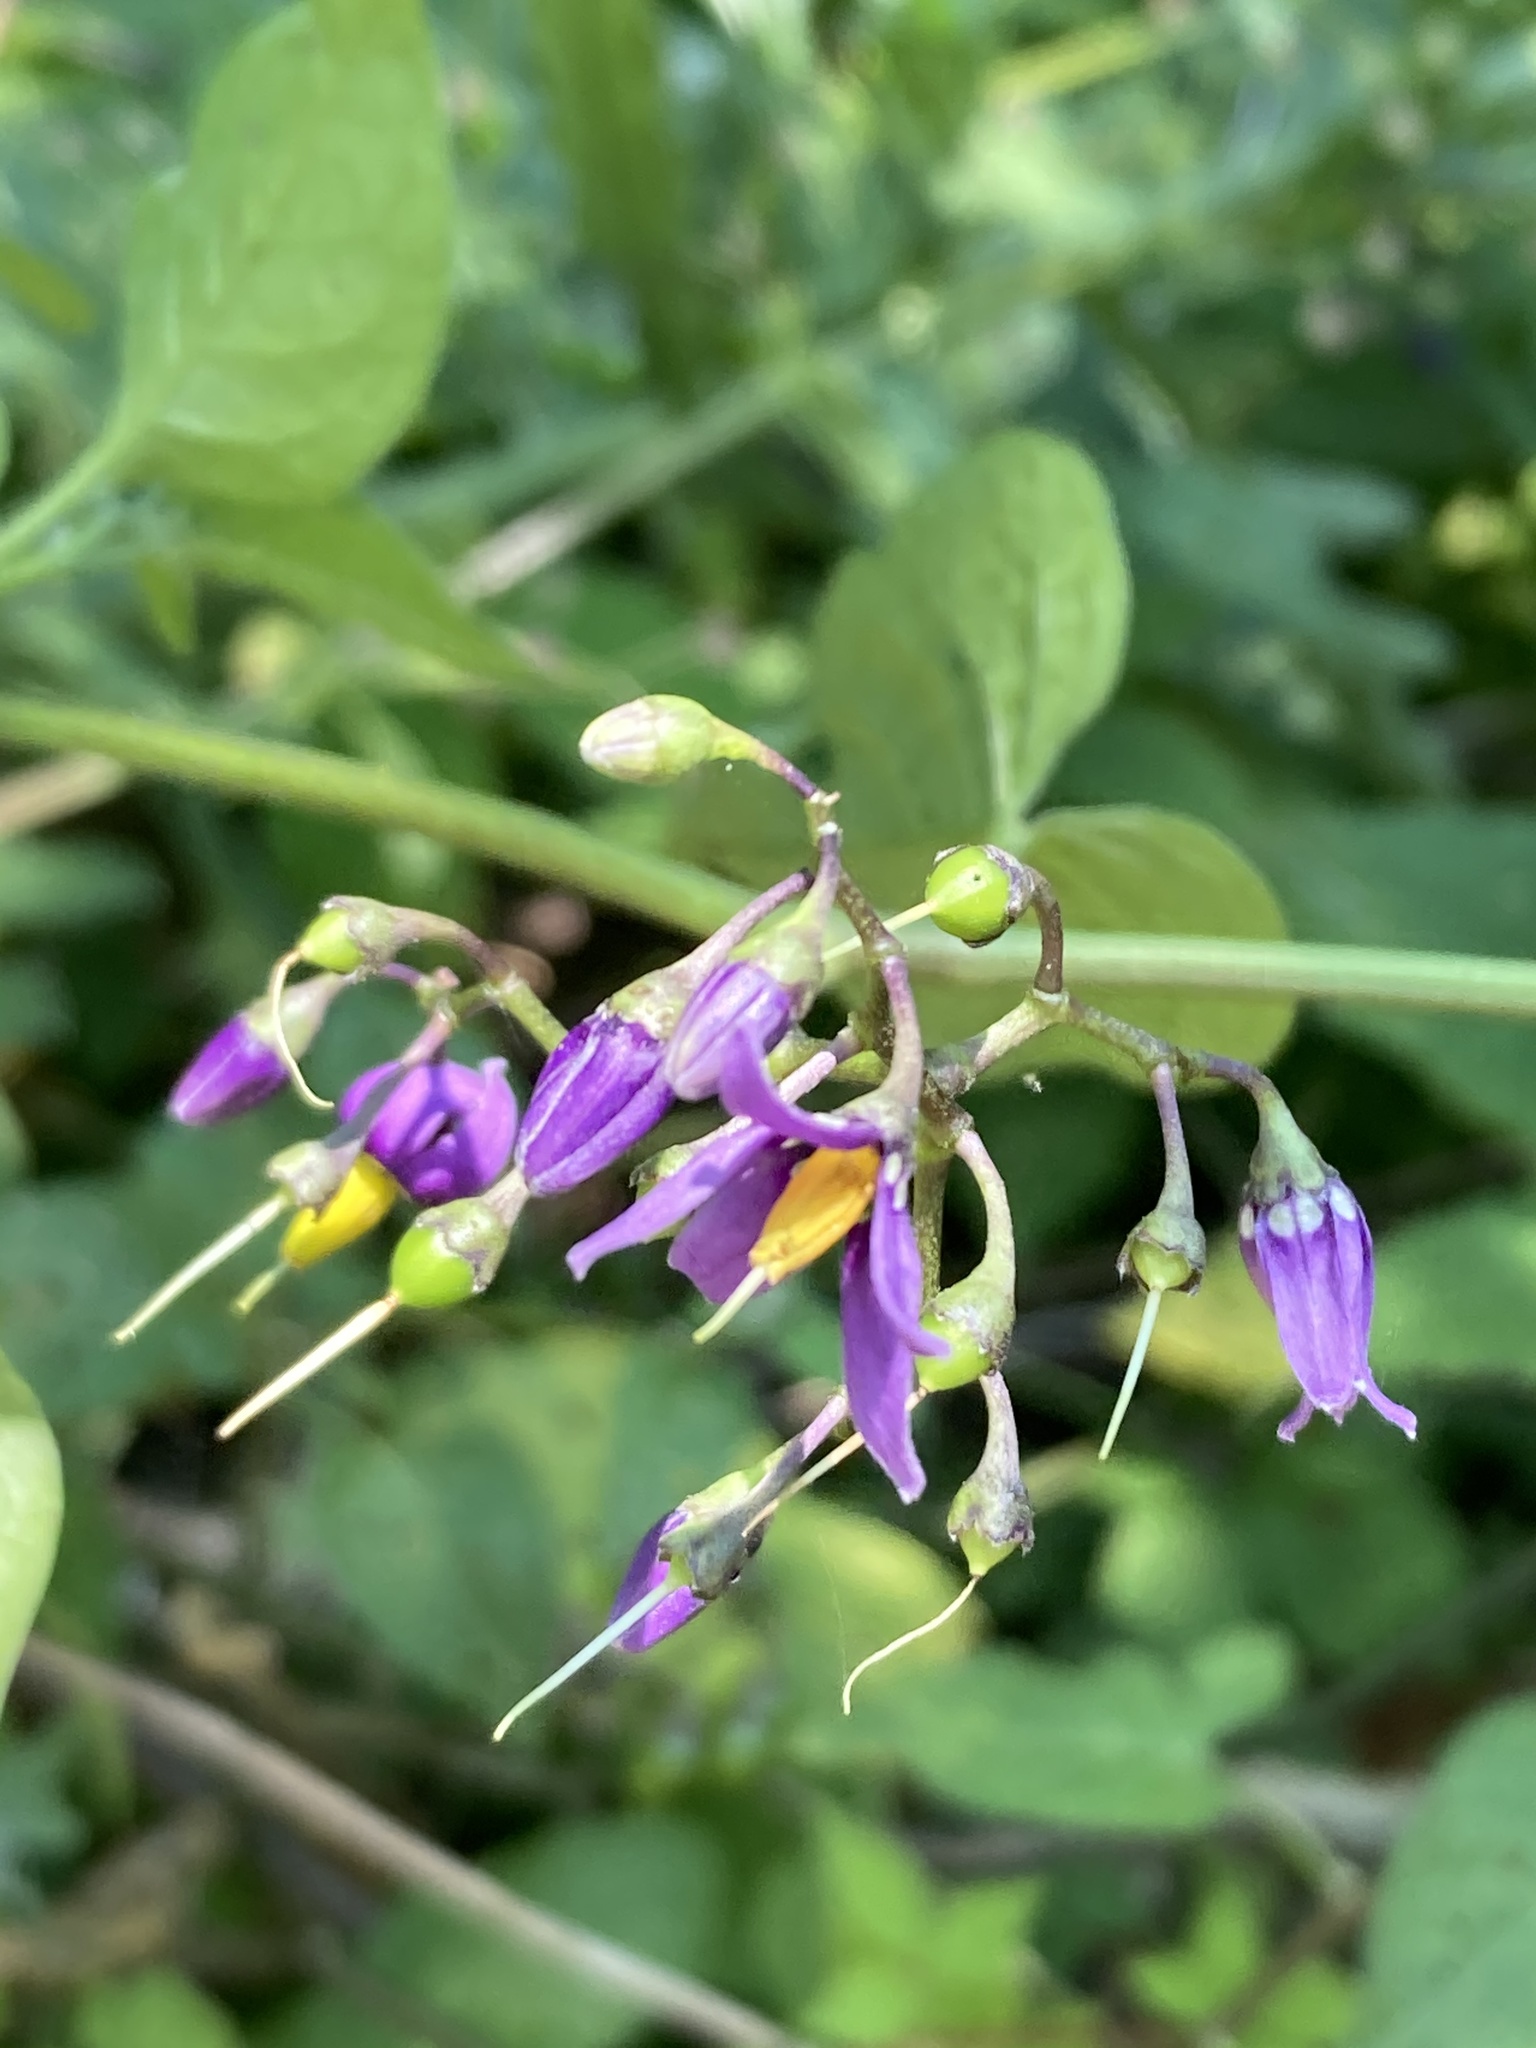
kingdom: Plantae
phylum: Tracheophyta
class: Magnoliopsida
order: Solanales
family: Solanaceae
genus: Solanum
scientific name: Solanum dulcamara
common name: Climbing nightshade
